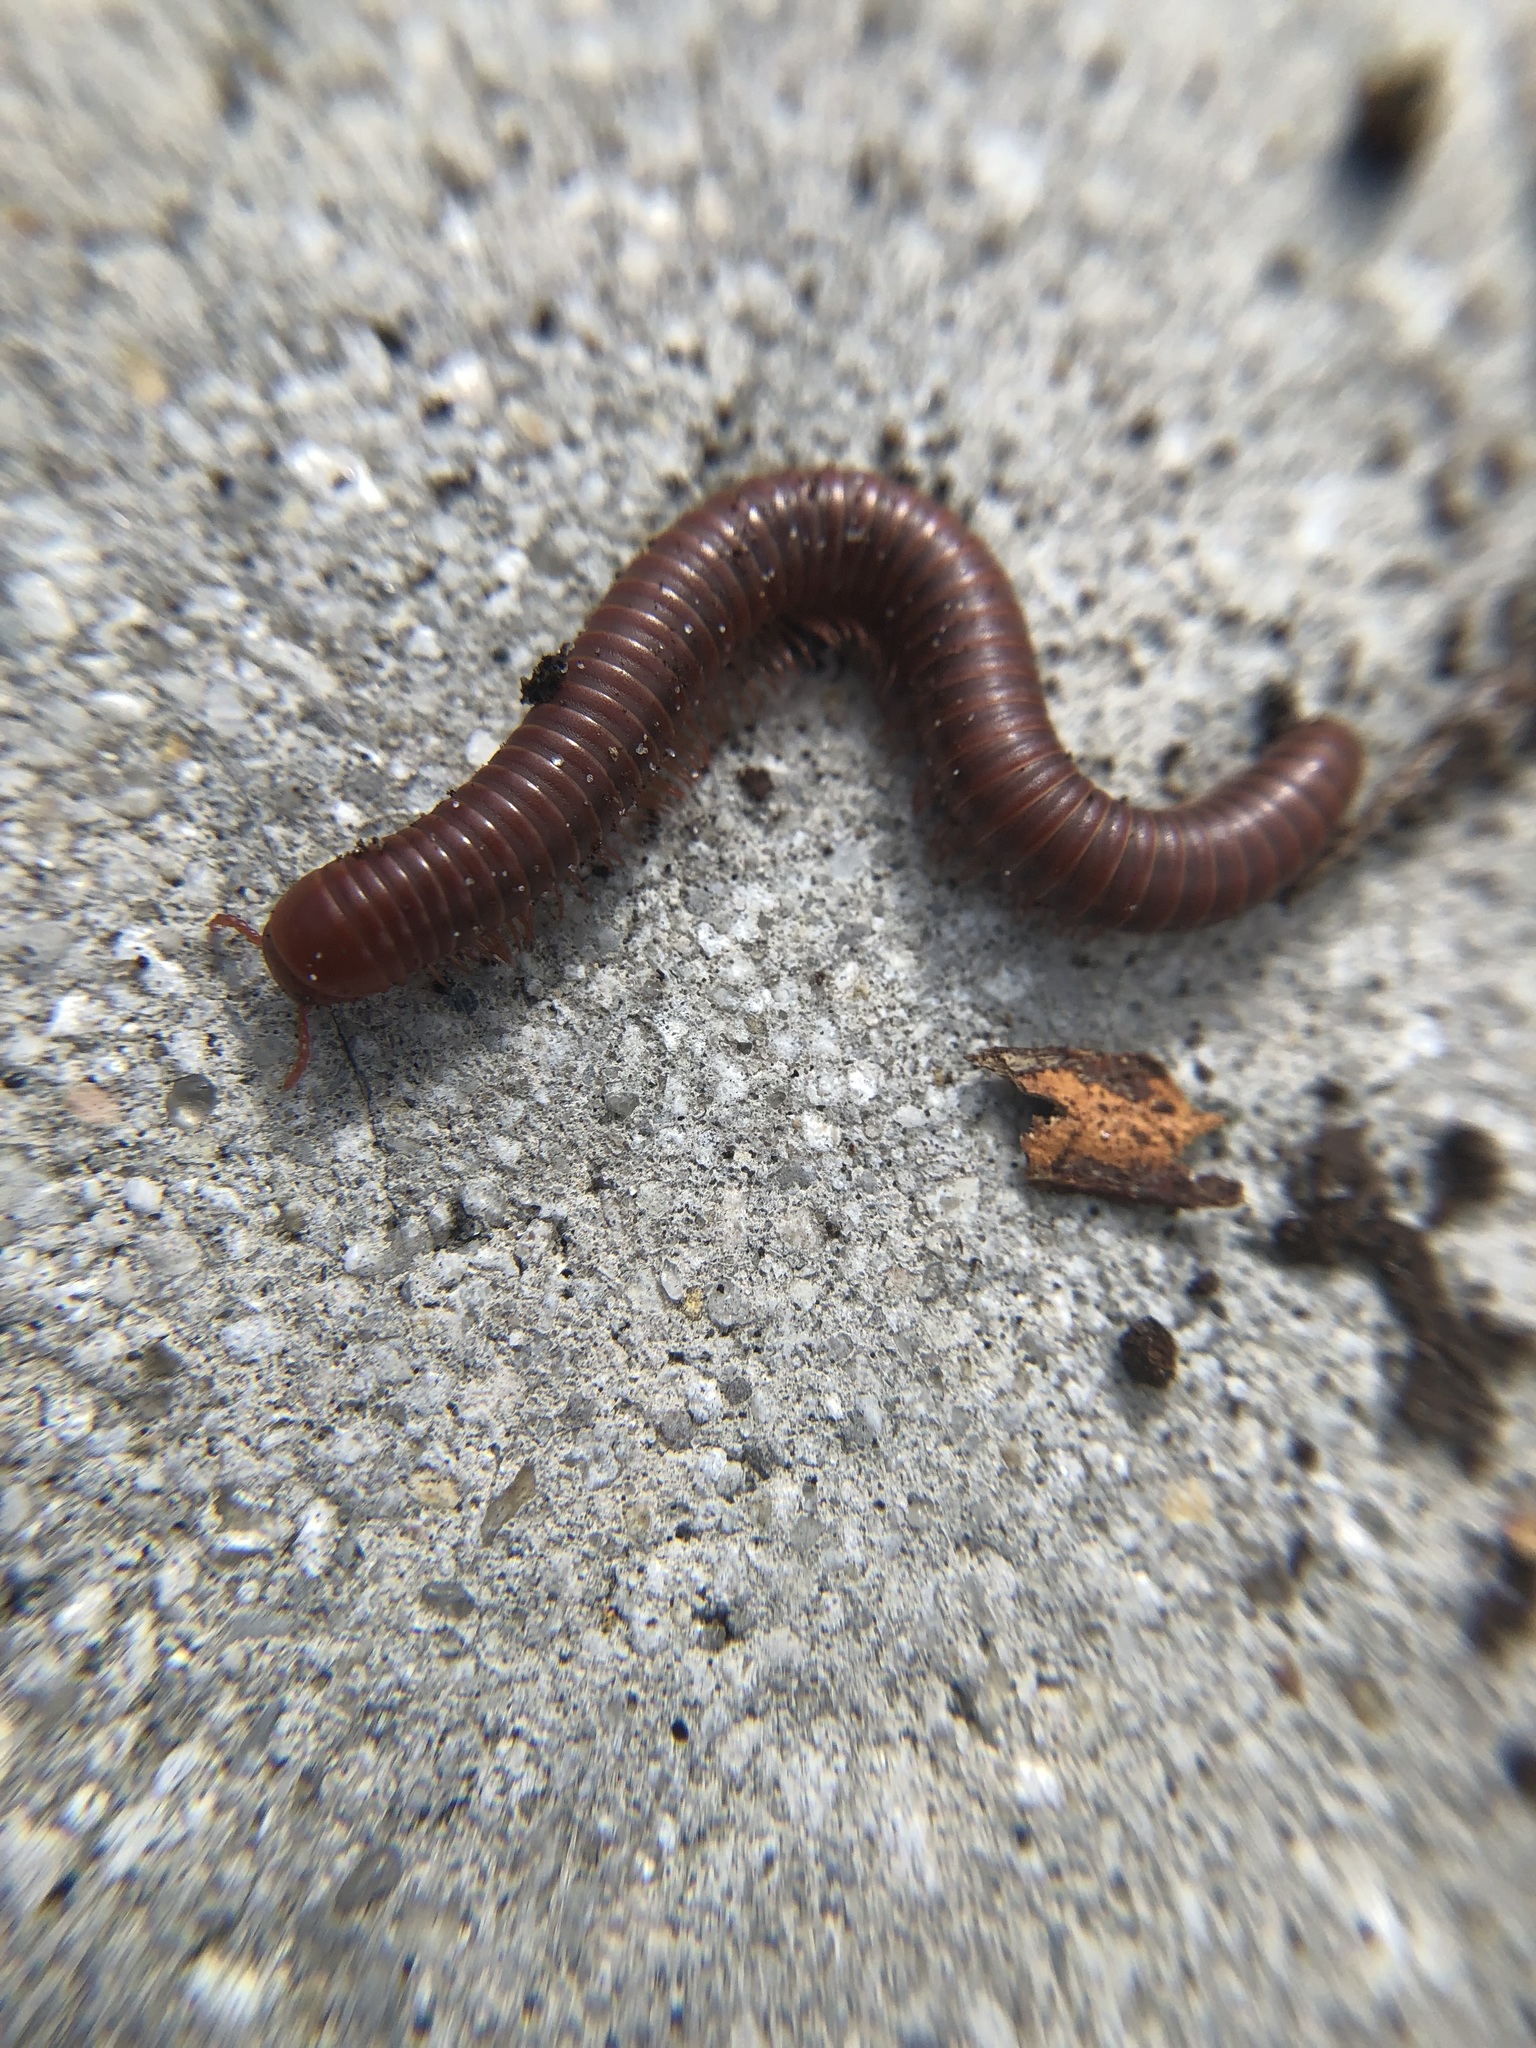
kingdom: Animalia
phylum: Arthropoda
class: Diplopoda
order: Spirobolida
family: Pachybolidae
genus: Trigoniulus
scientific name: Trigoniulus corallinus
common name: Millipede
